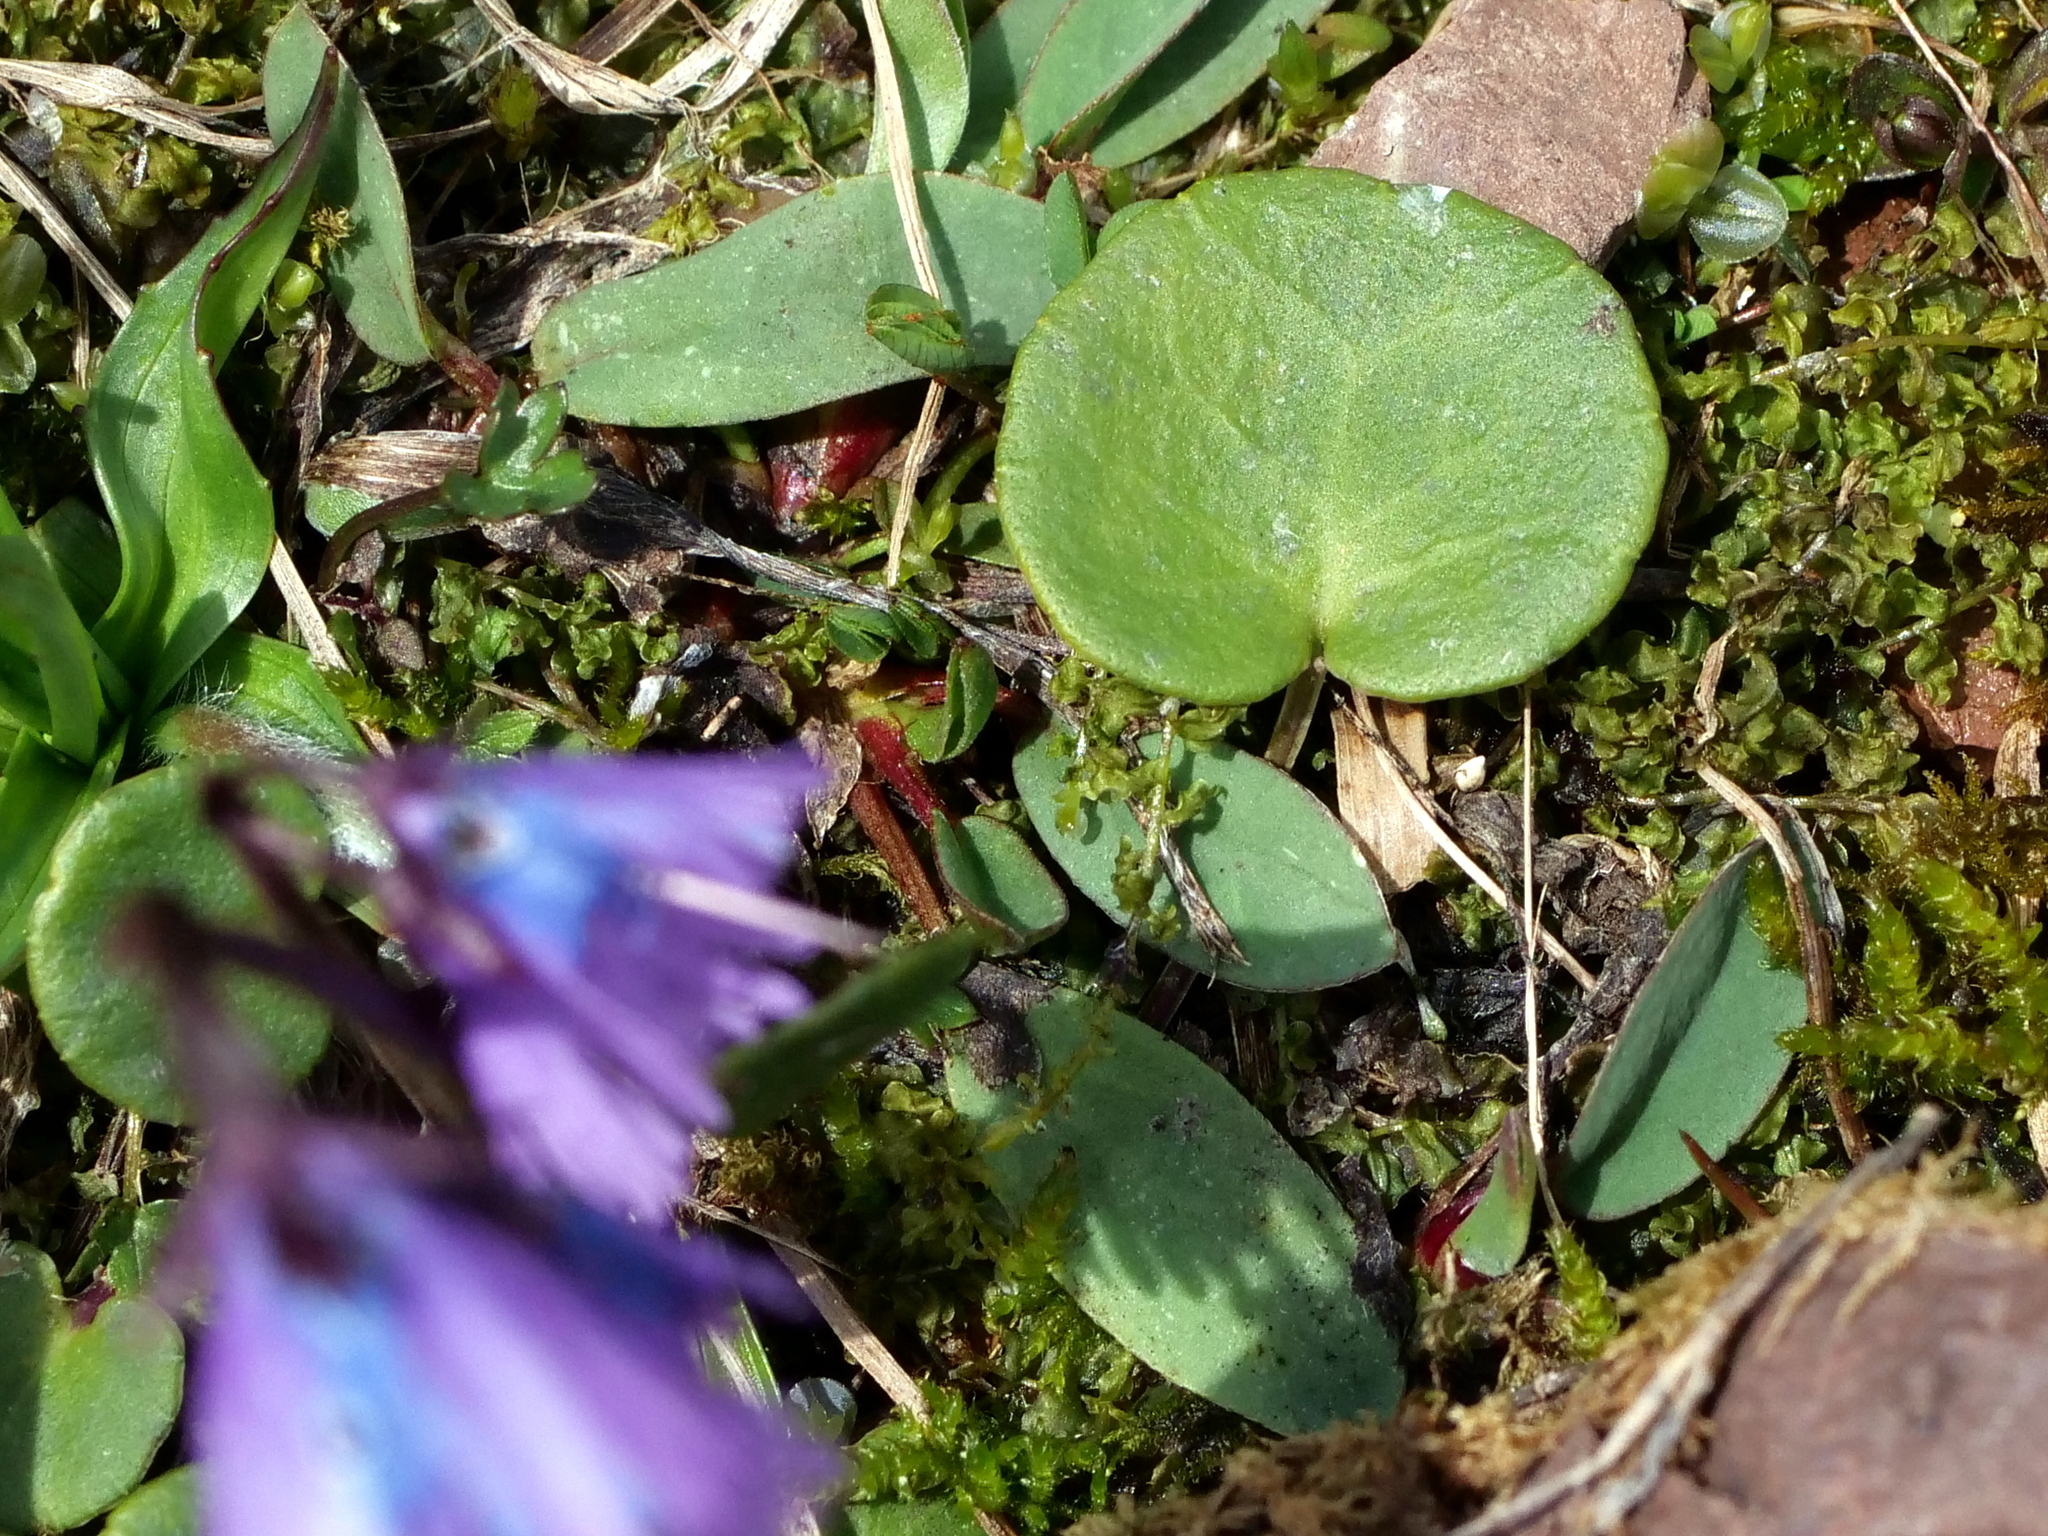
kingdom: Plantae
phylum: Tracheophyta
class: Magnoliopsida
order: Ericales
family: Primulaceae
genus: Soldanella
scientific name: Soldanella alpina
